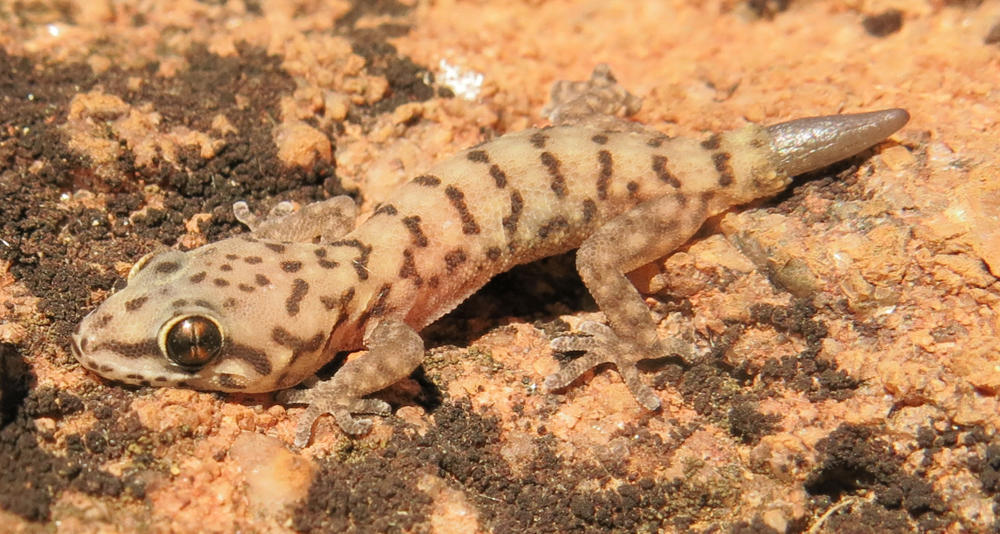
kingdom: Animalia
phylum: Chordata
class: Squamata
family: Gekkonidae
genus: Pachydactylus
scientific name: Pachydactylus affinis
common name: Transvaal gecko
